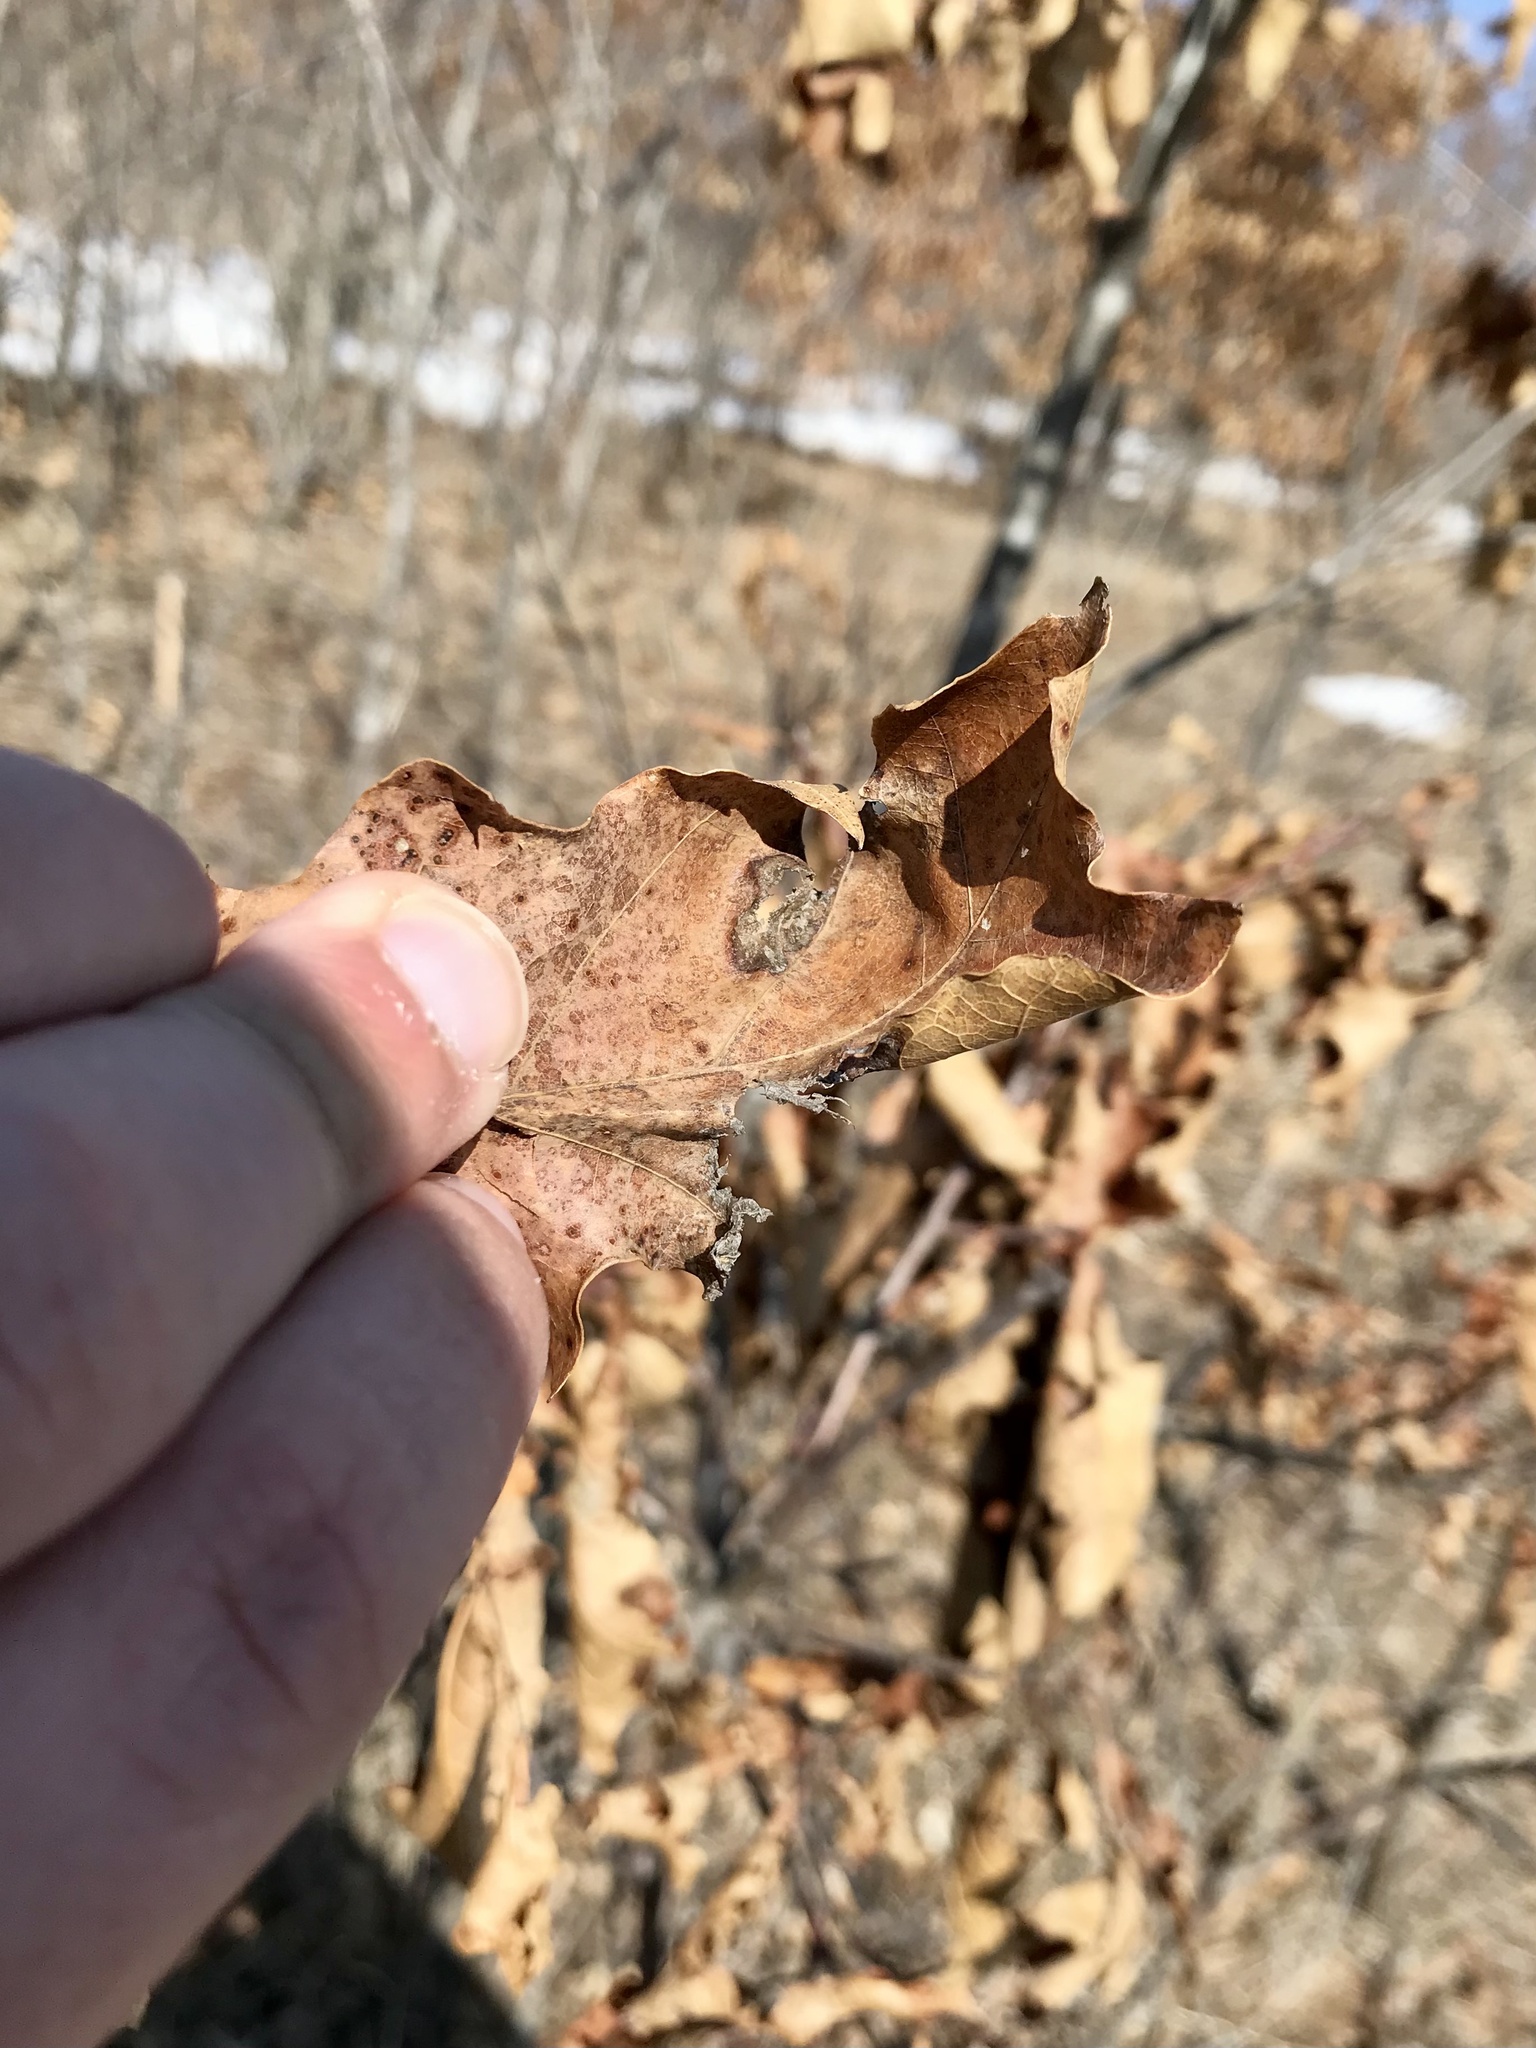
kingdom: Animalia
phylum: Arthropoda
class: Insecta
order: Lepidoptera
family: Gracillariidae
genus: Acrocercops
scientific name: Acrocercops albinatella
